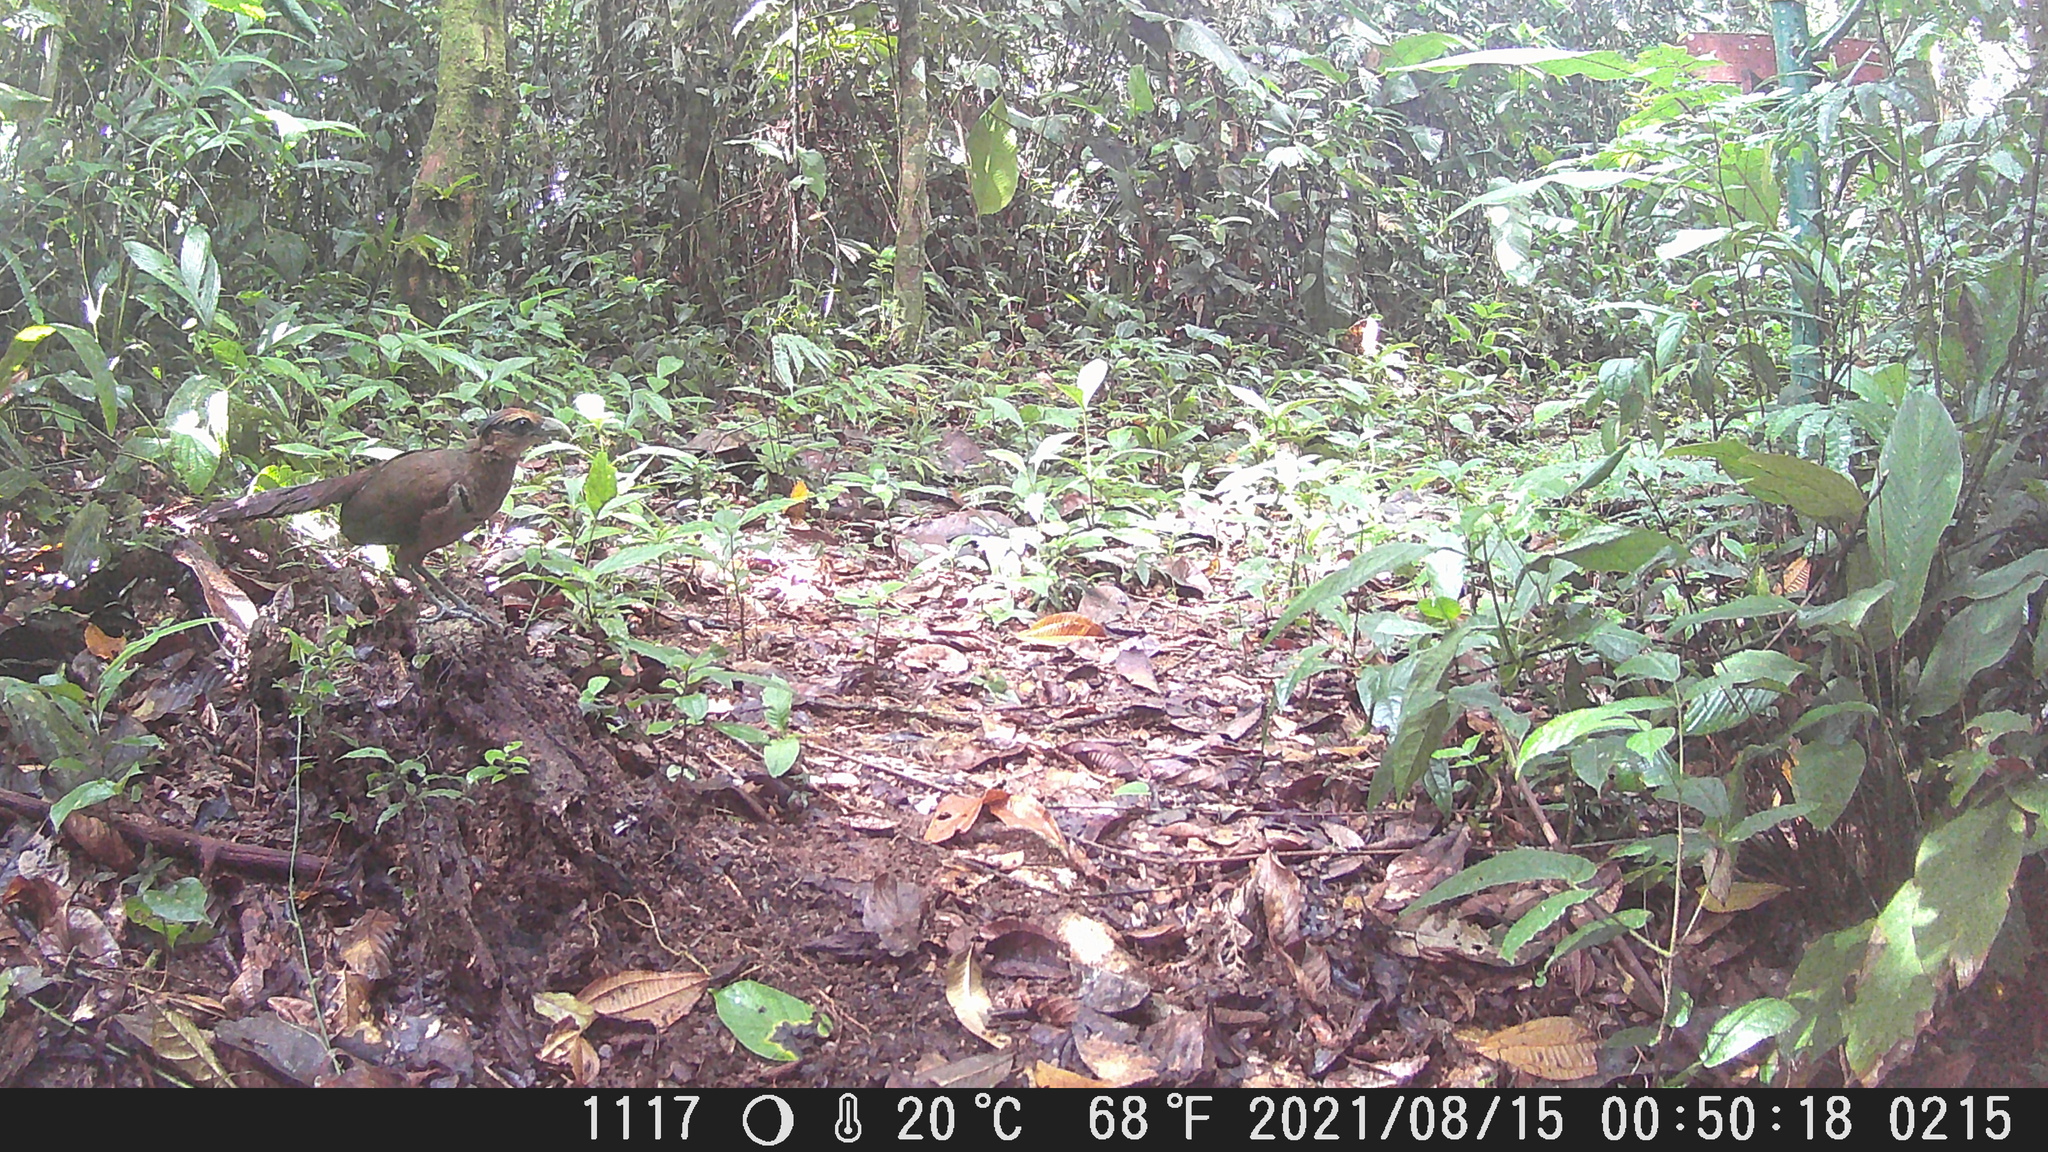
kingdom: Animalia
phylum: Chordata
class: Aves
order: Cuculiformes
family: Cuculidae
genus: Neomorphus
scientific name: Neomorphus geoffroyi
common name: Rufous-vented ground-cuckoo
